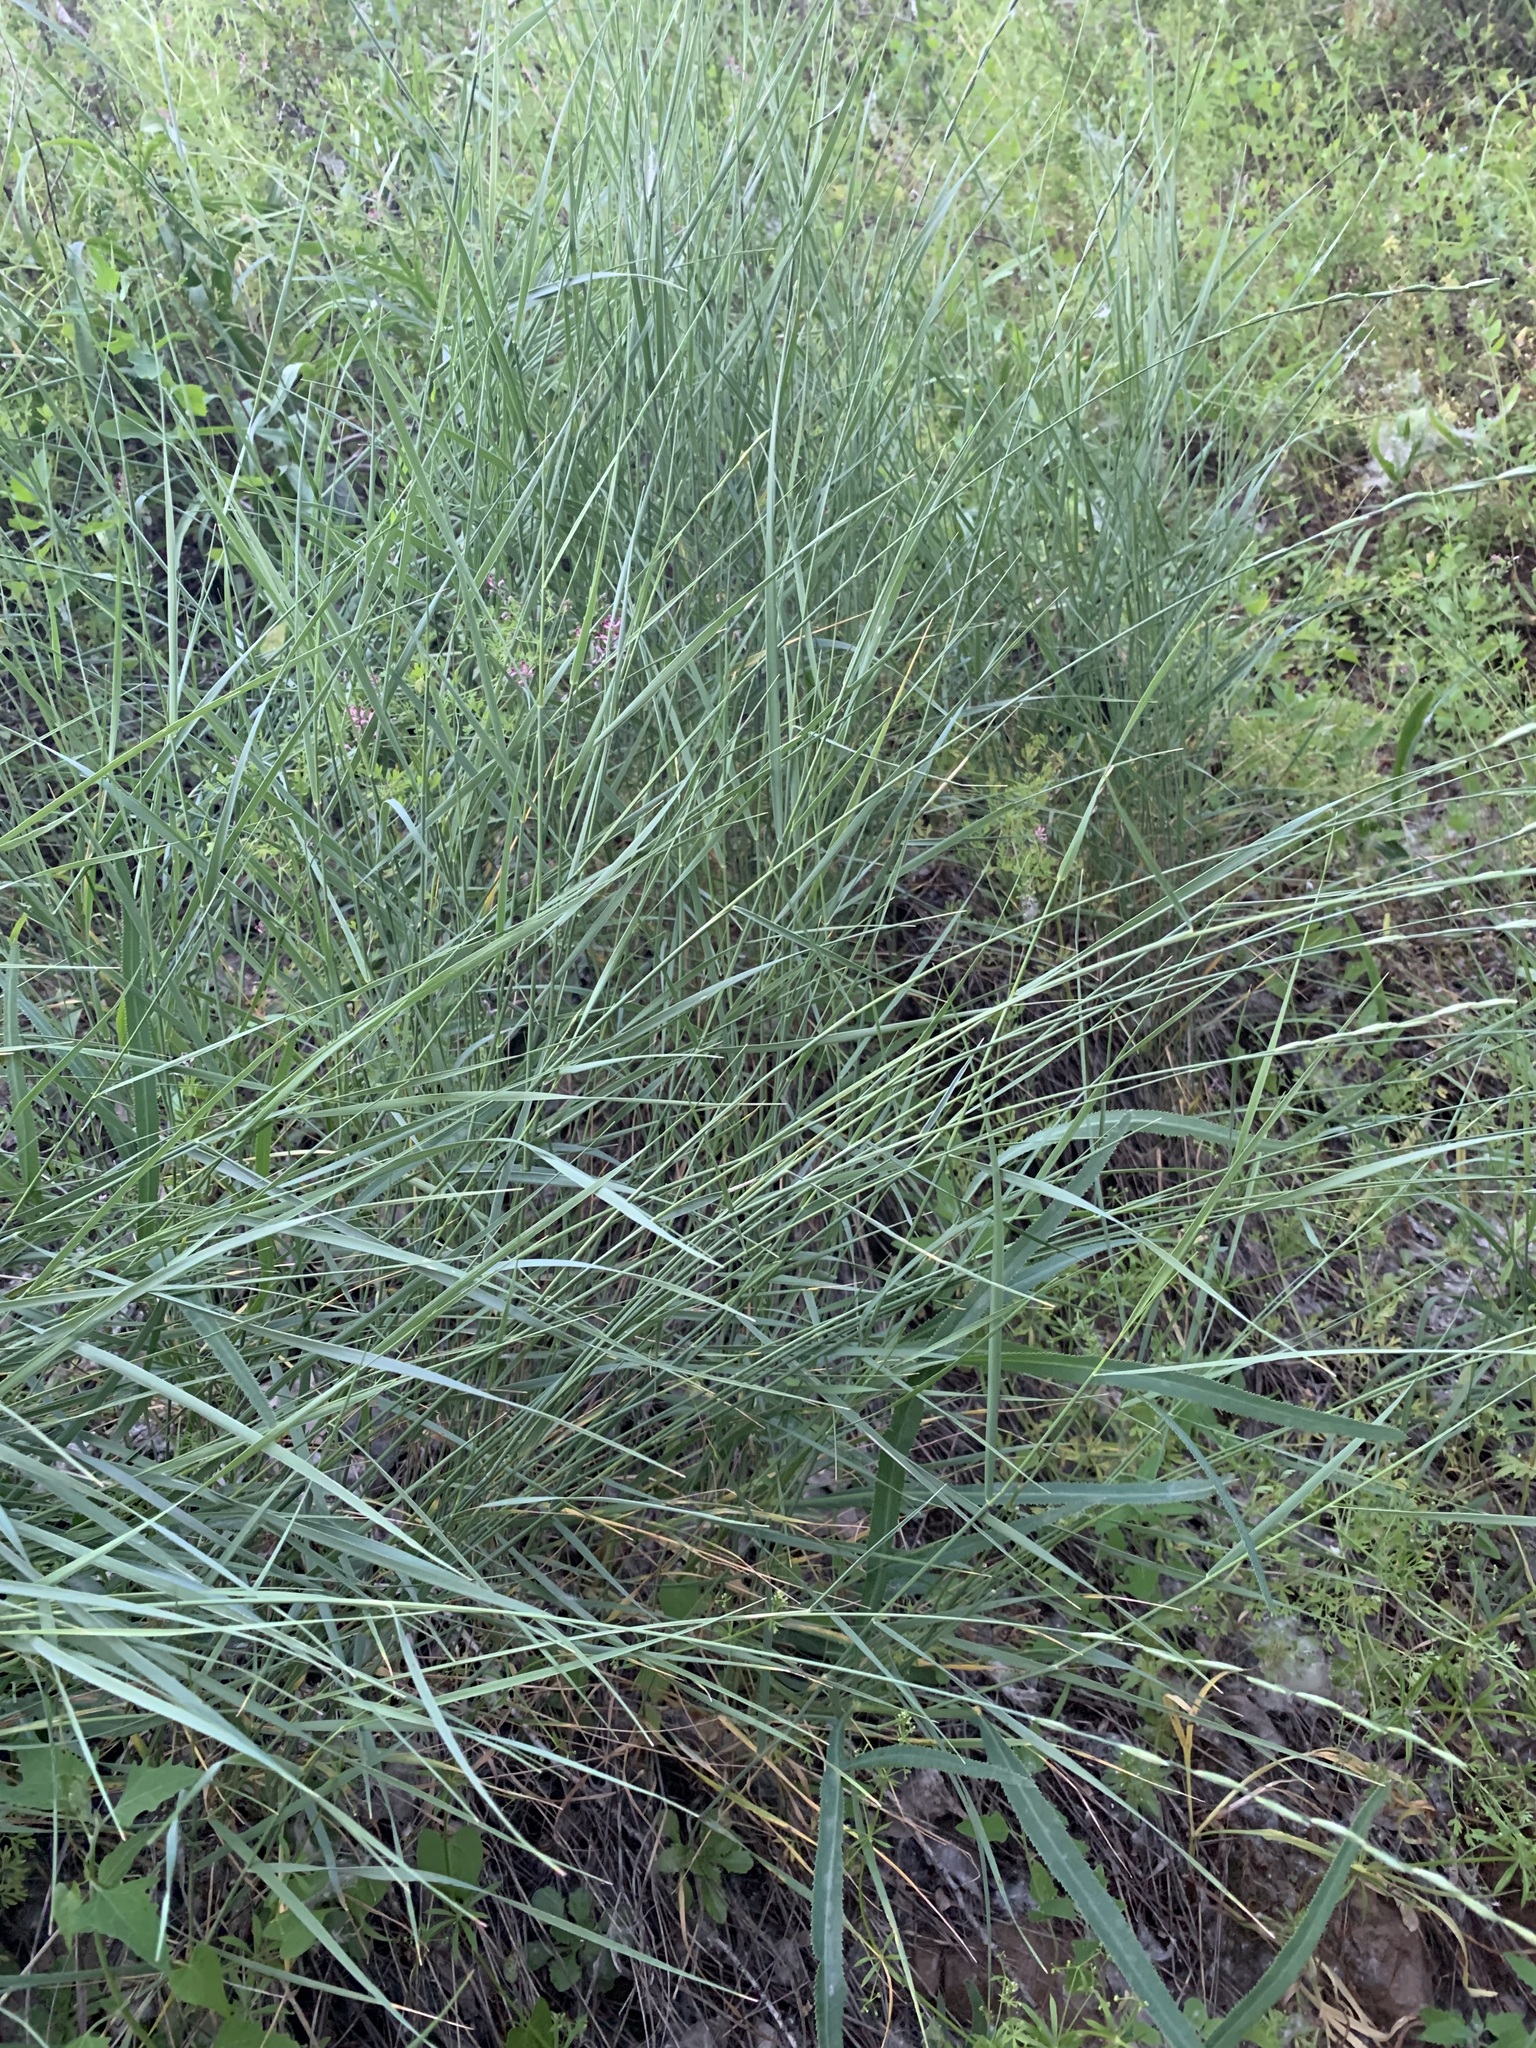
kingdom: Plantae
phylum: Tracheophyta
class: Liliopsida
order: Poales
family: Poaceae
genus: Pseudoroegneria
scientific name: Pseudoroegneria geniculata
